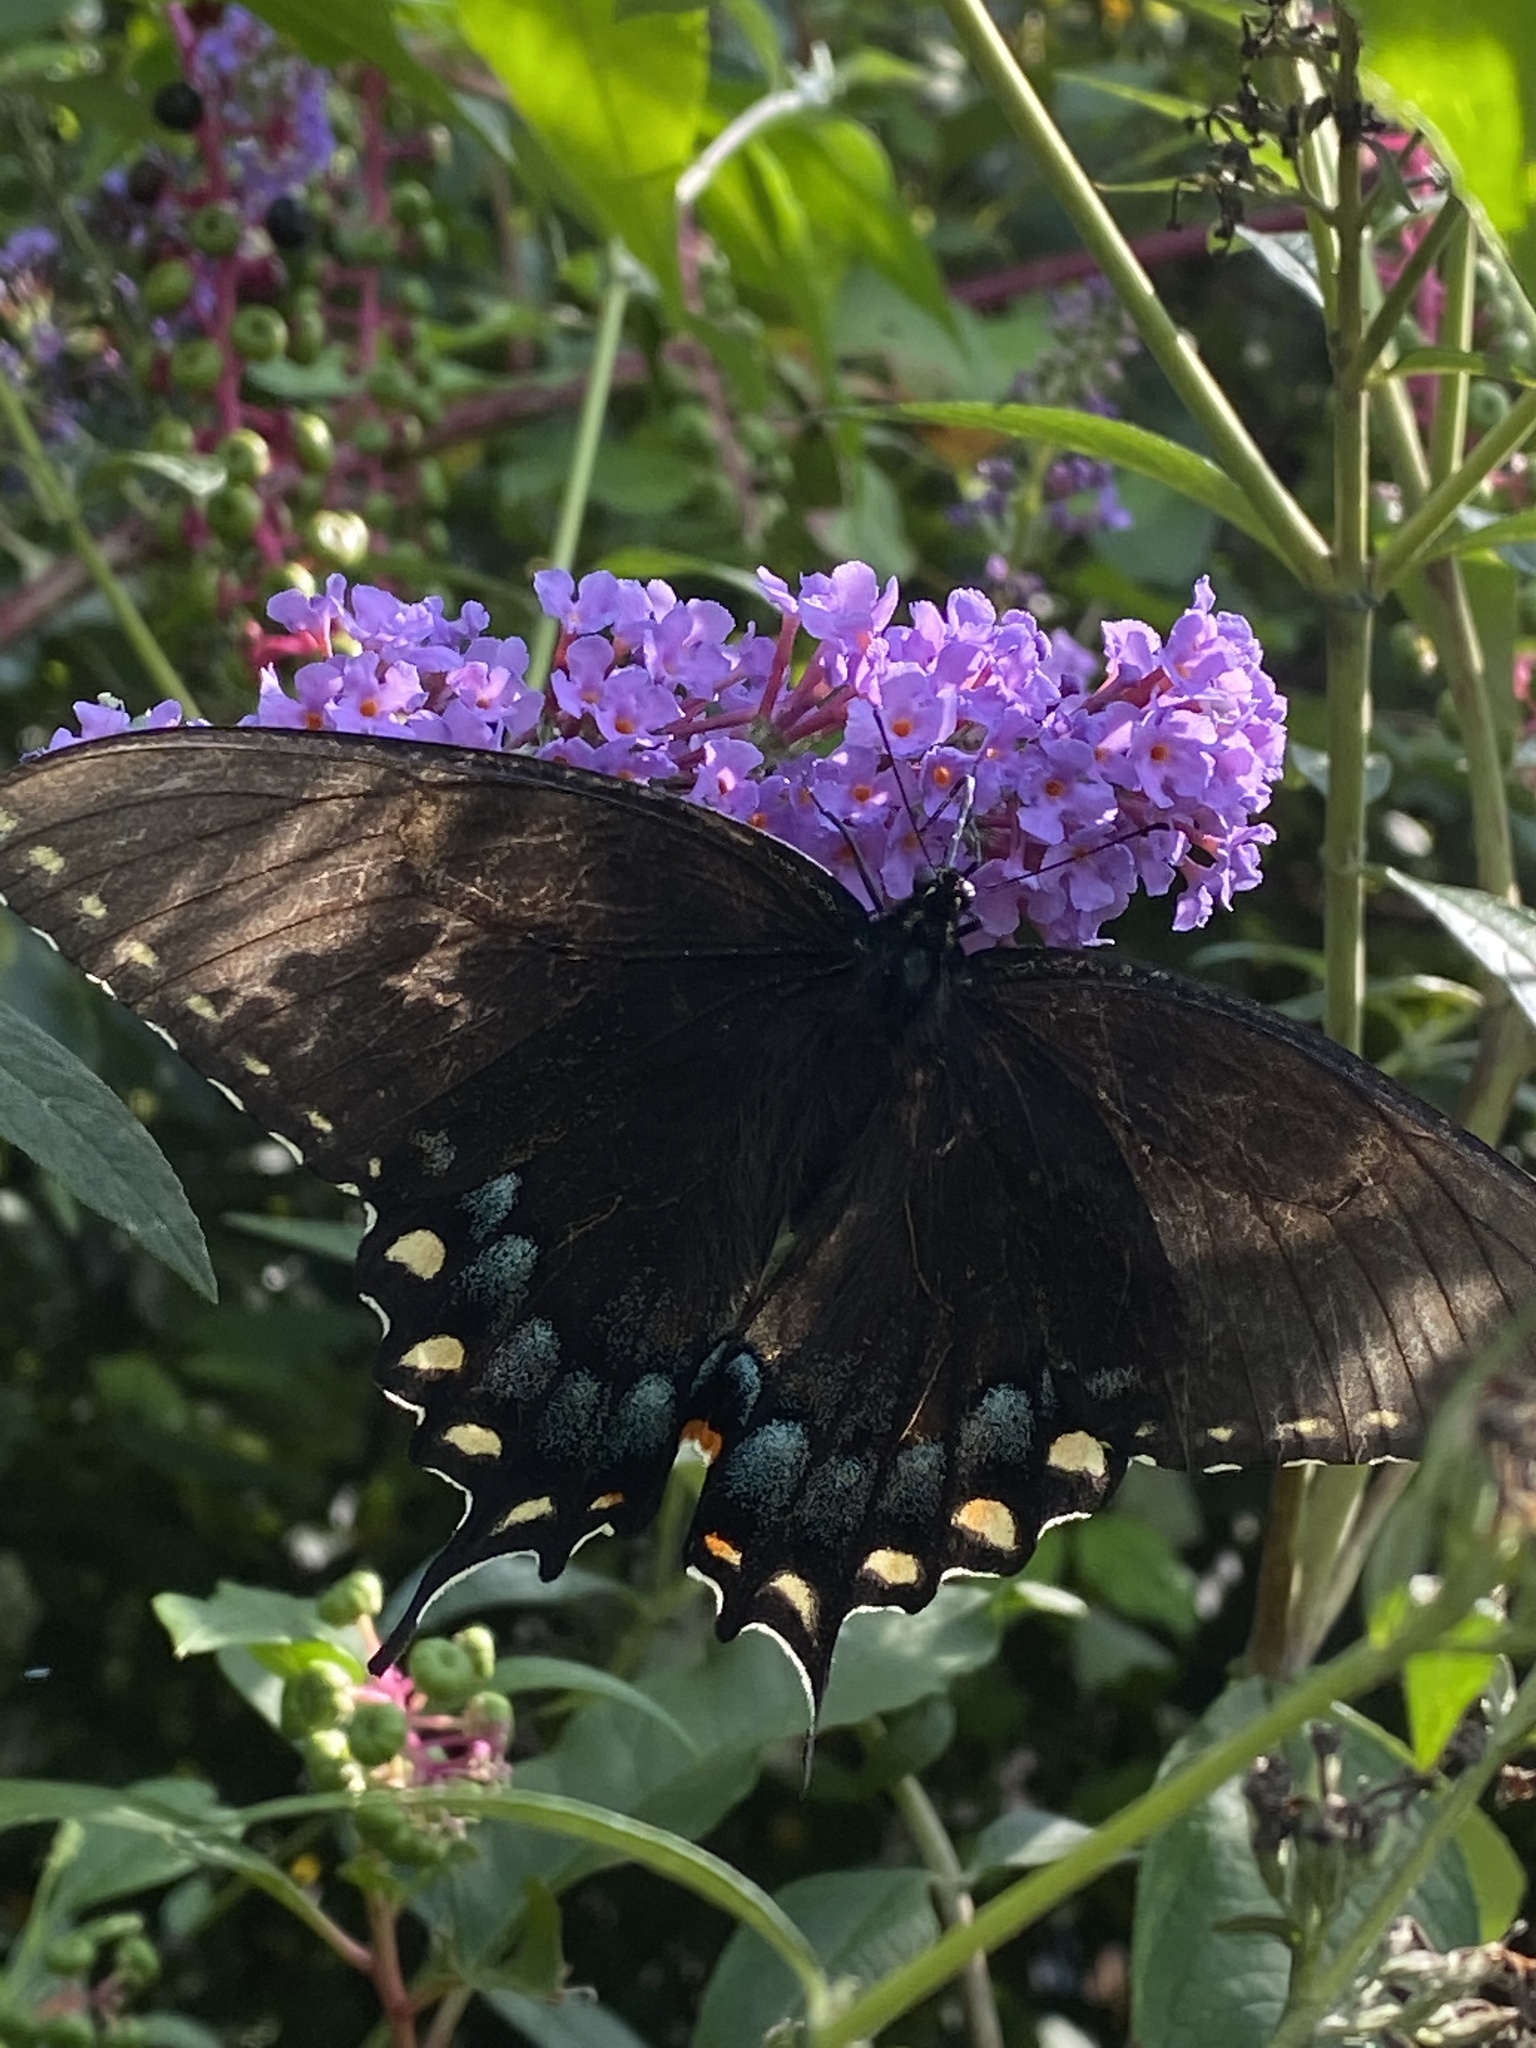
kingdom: Animalia
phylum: Arthropoda
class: Insecta
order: Lepidoptera
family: Papilionidae
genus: Papilio
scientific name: Papilio glaucus
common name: Tiger swallowtail
